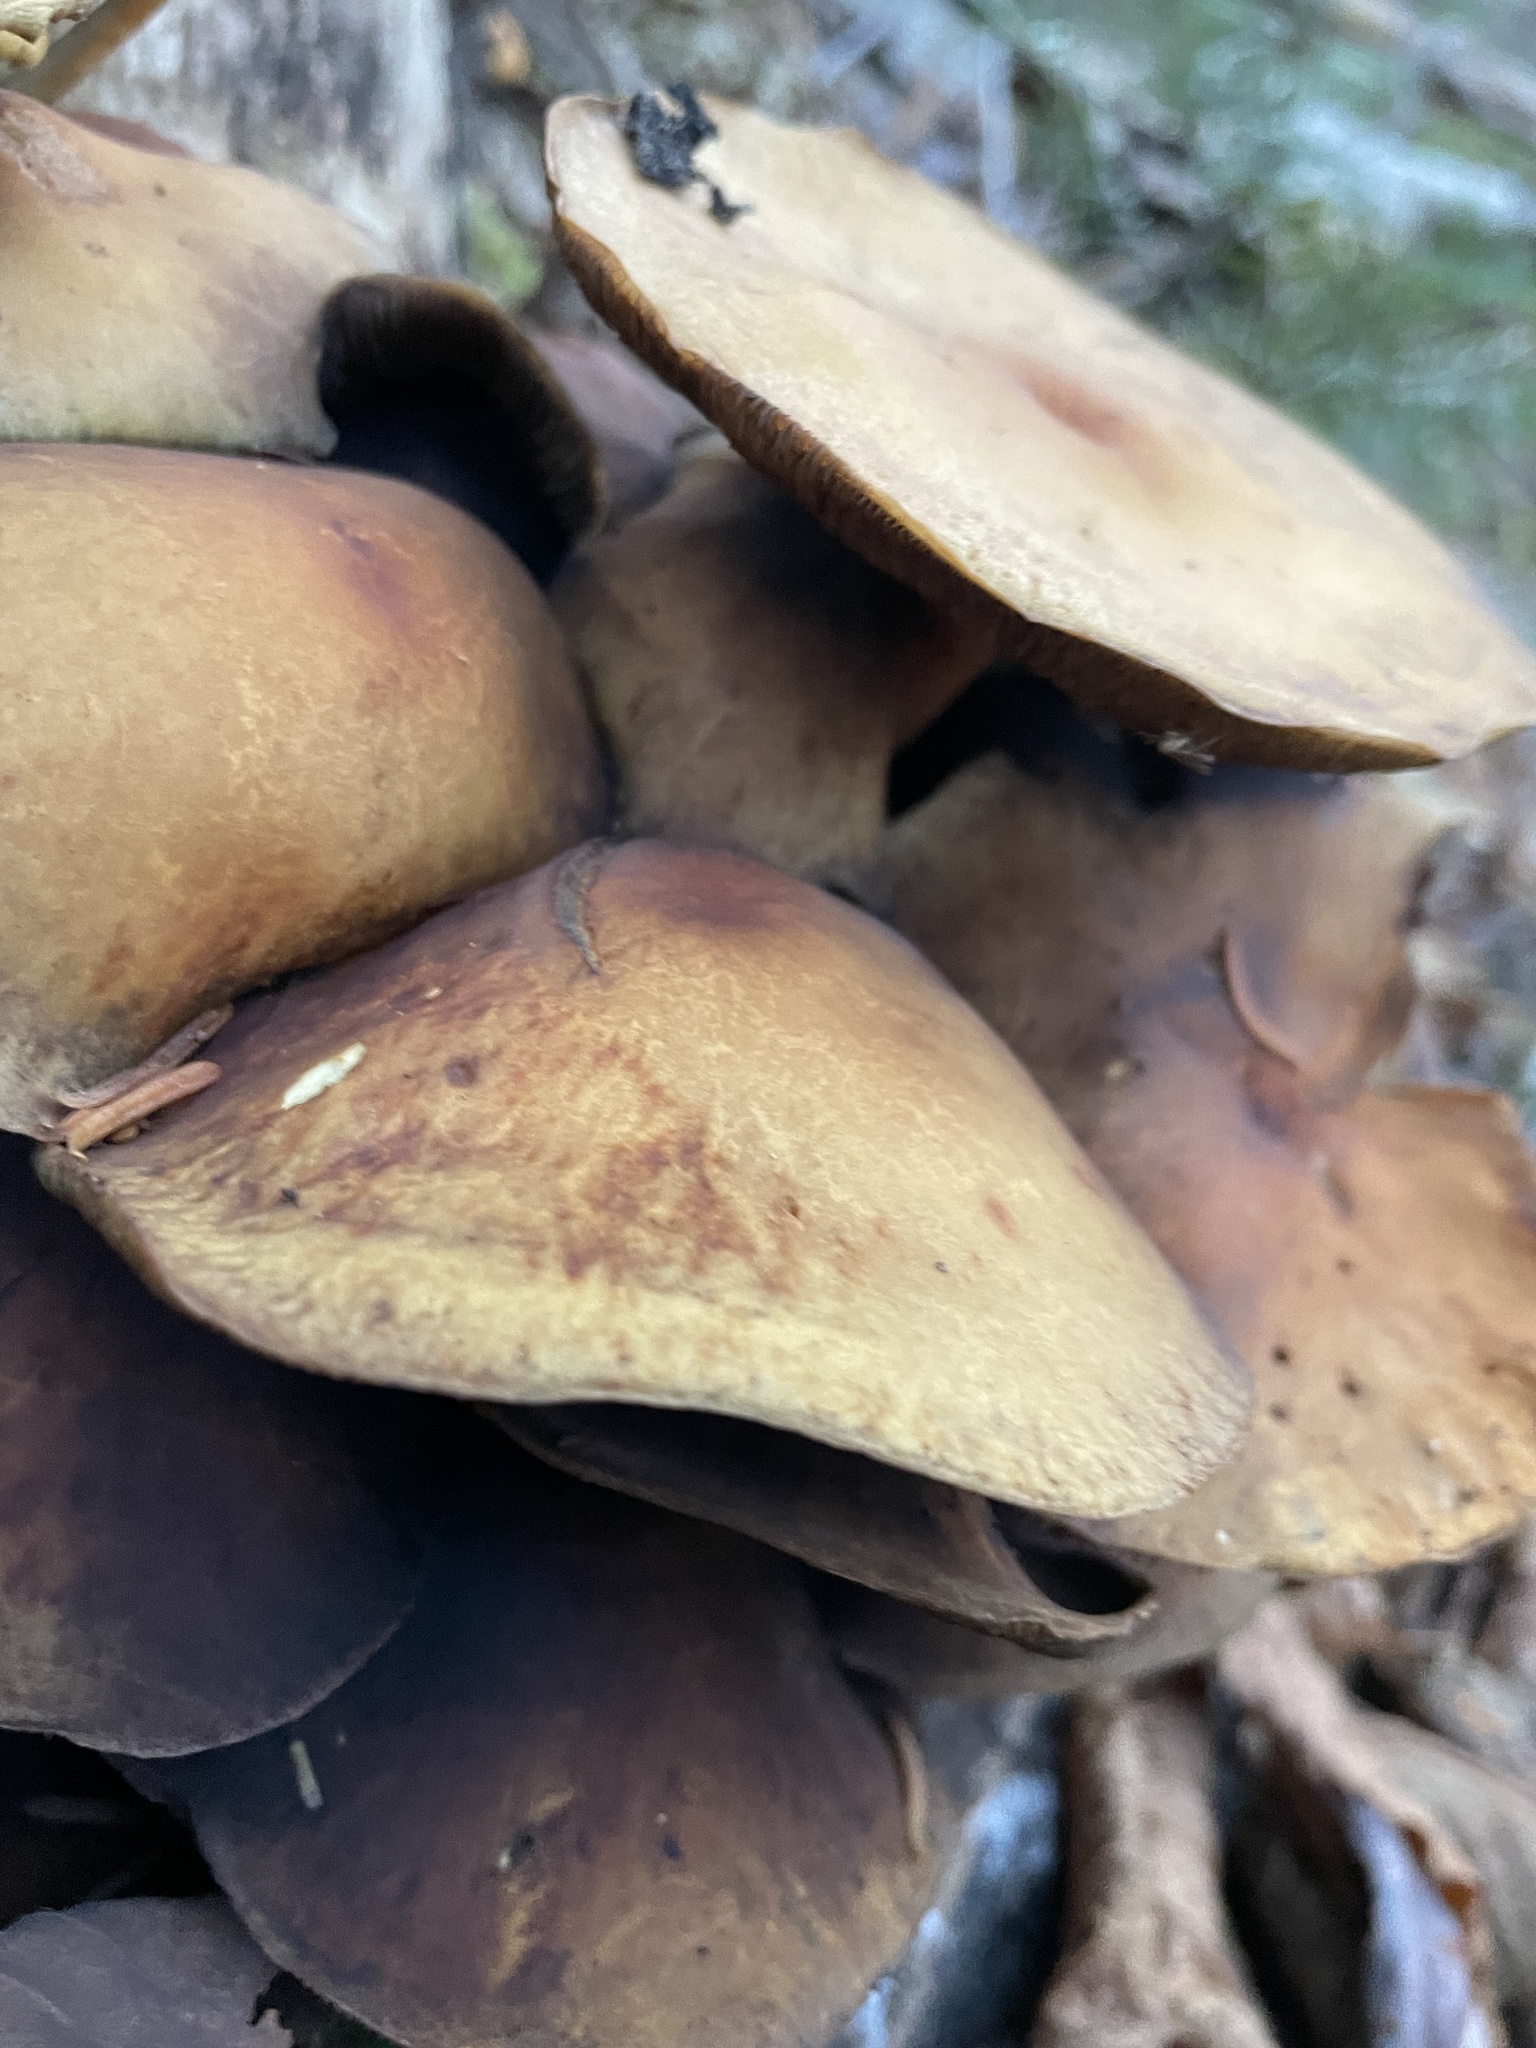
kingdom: Fungi
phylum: Basidiomycota
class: Agaricomycetes
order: Agaricales
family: Strophariaceae
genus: Hypholoma
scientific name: Hypholoma capnoides
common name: Conifer tuft
